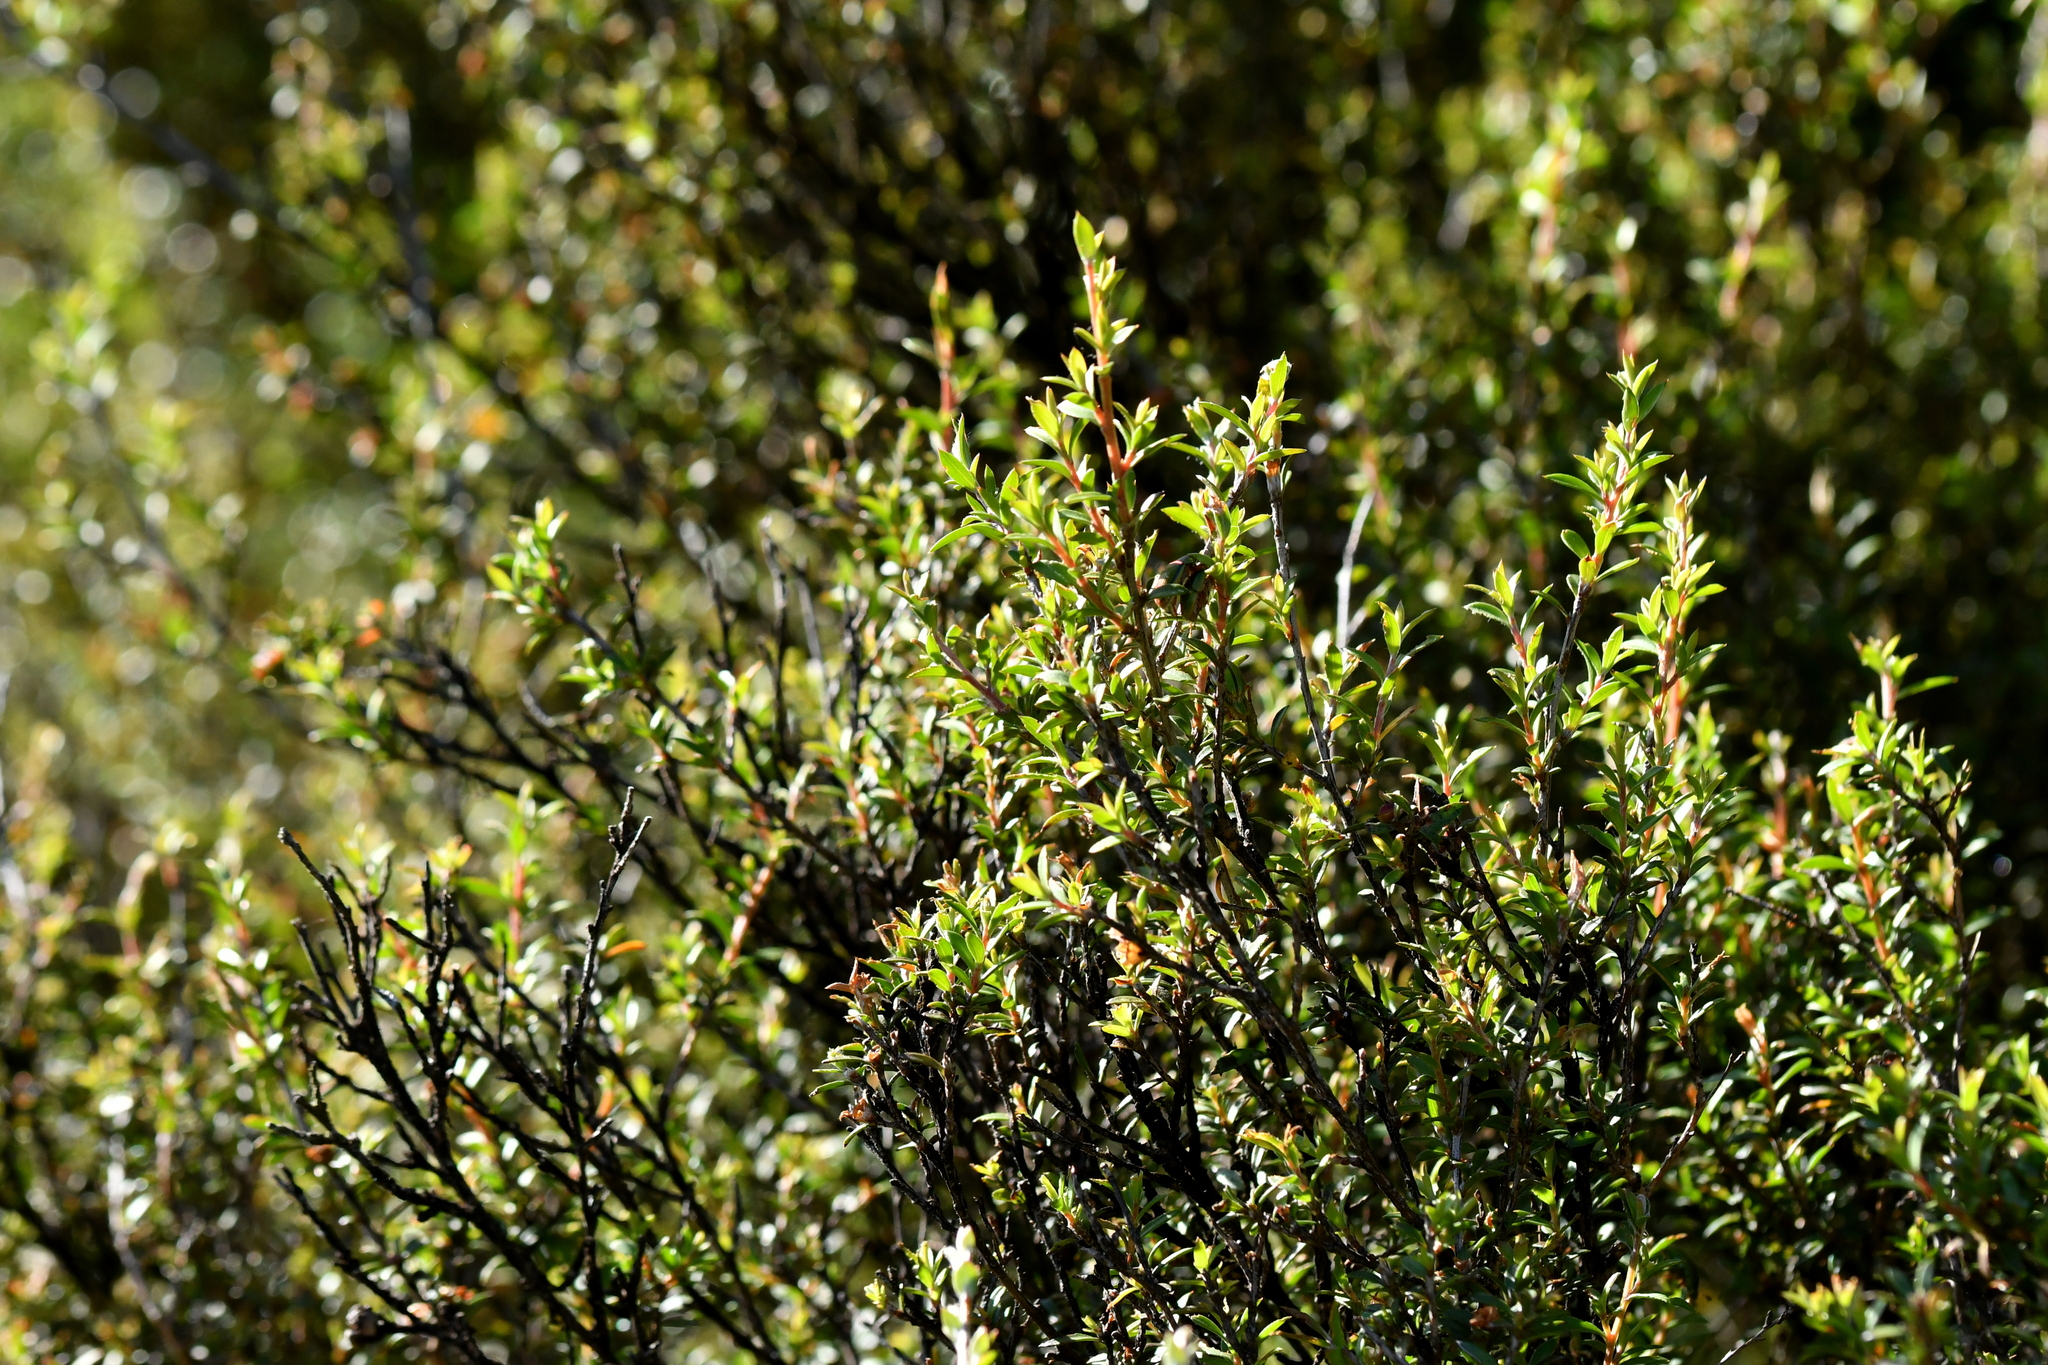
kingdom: Plantae
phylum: Tracheophyta
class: Magnoliopsida
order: Myrtales
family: Myrtaceae
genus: Kunzea
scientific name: Kunzea robusta
